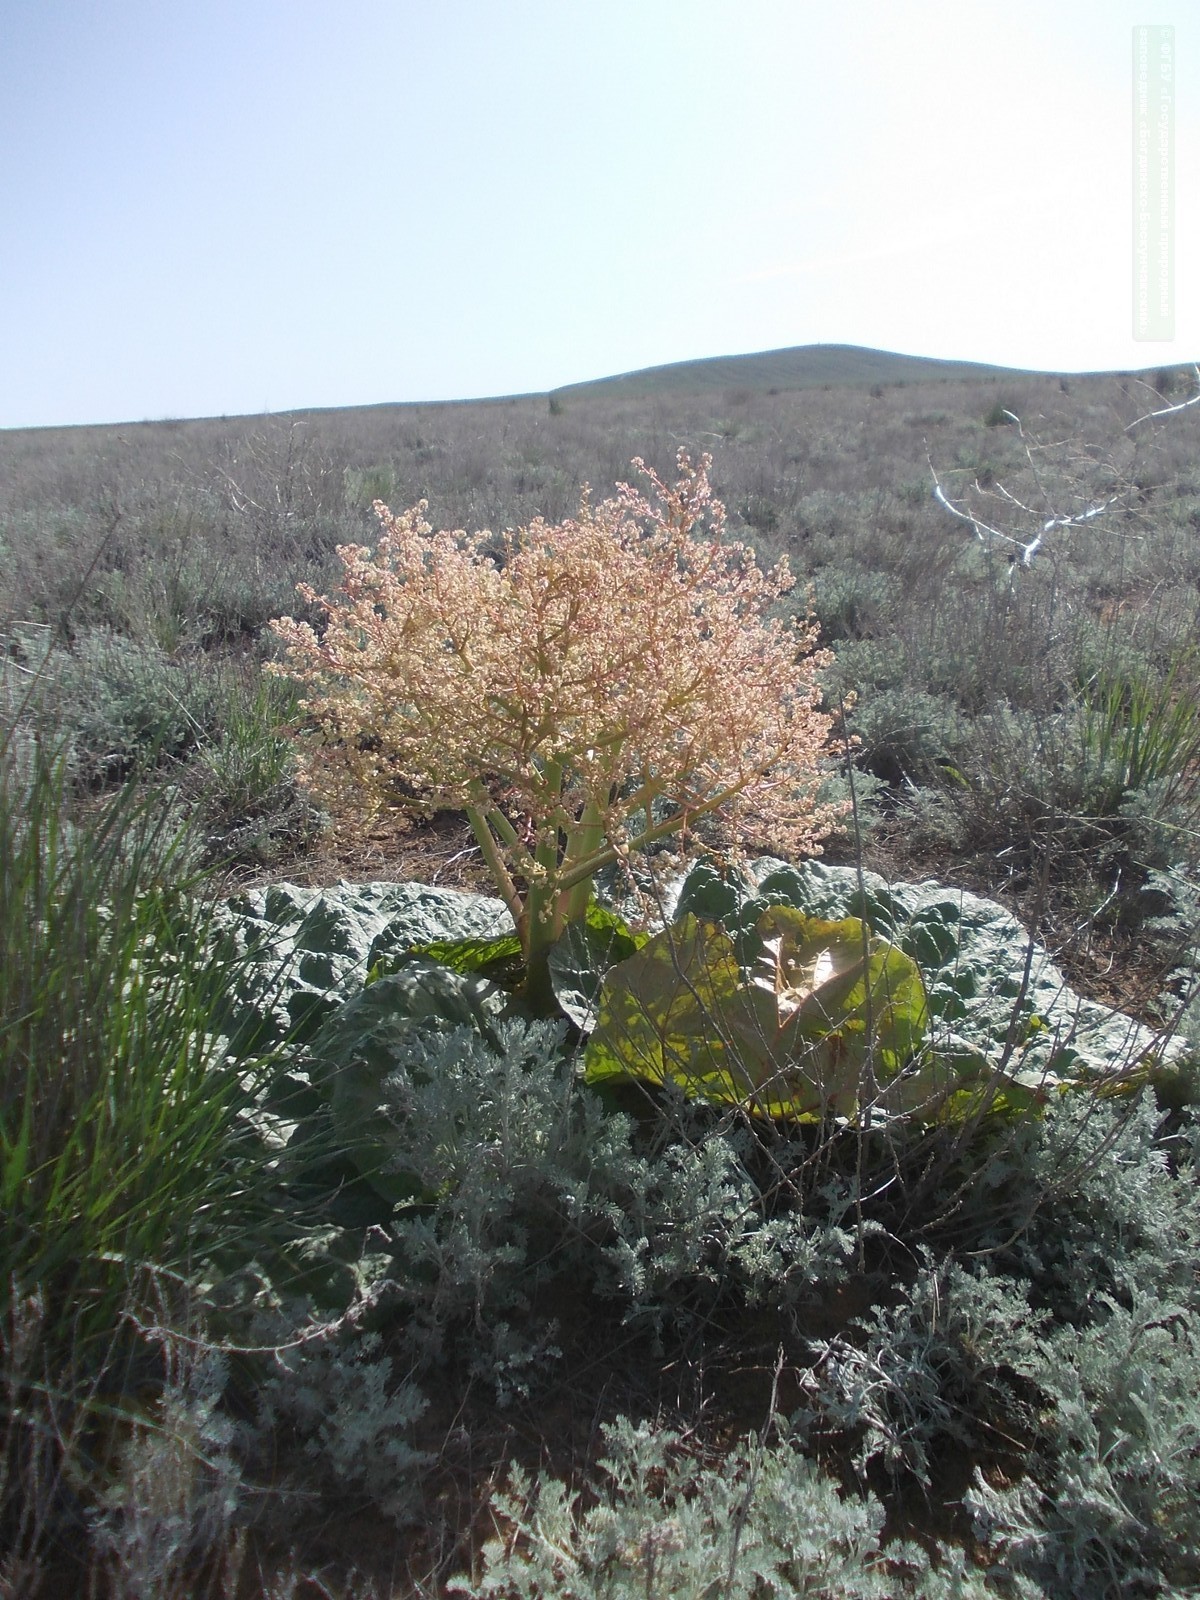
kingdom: Plantae
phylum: Tracheophyta
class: Magnoliopsida
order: Caryophyllales
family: Polygonaceae
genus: Rheum
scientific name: Rheum tataricum
